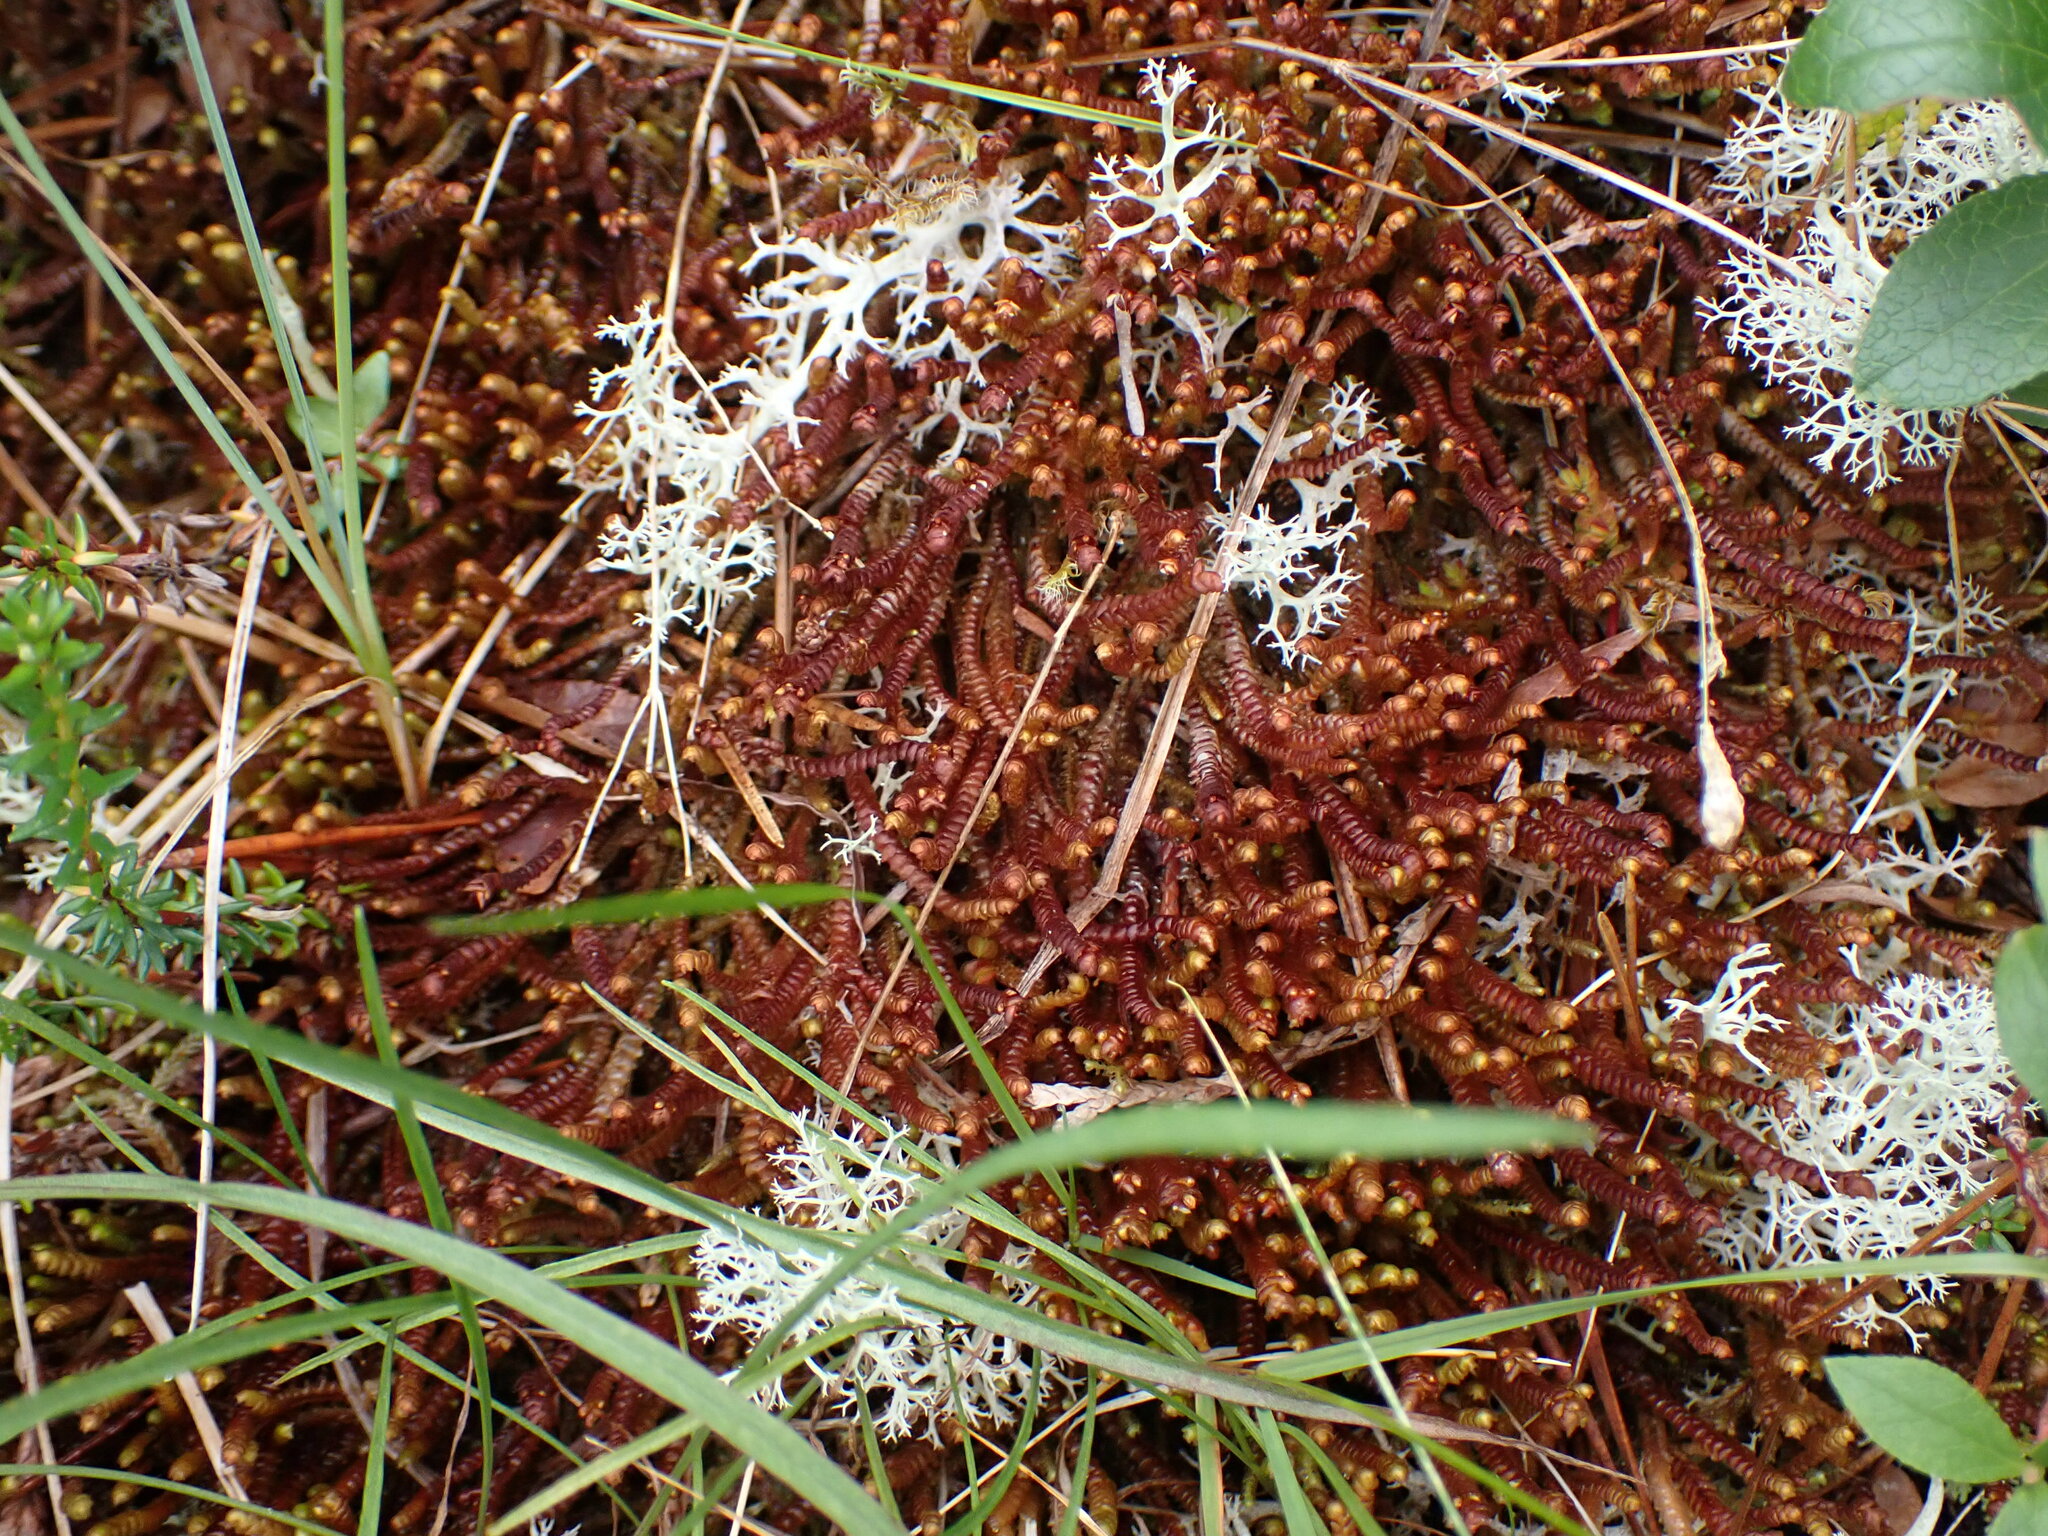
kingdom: Plantae
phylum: Marchantiophyta
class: Jungermanniopsida
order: Pleuroziales
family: Pleuroziaceae
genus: Pleurozia
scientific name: Pleurozia purpurea
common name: Purple spoonwort
